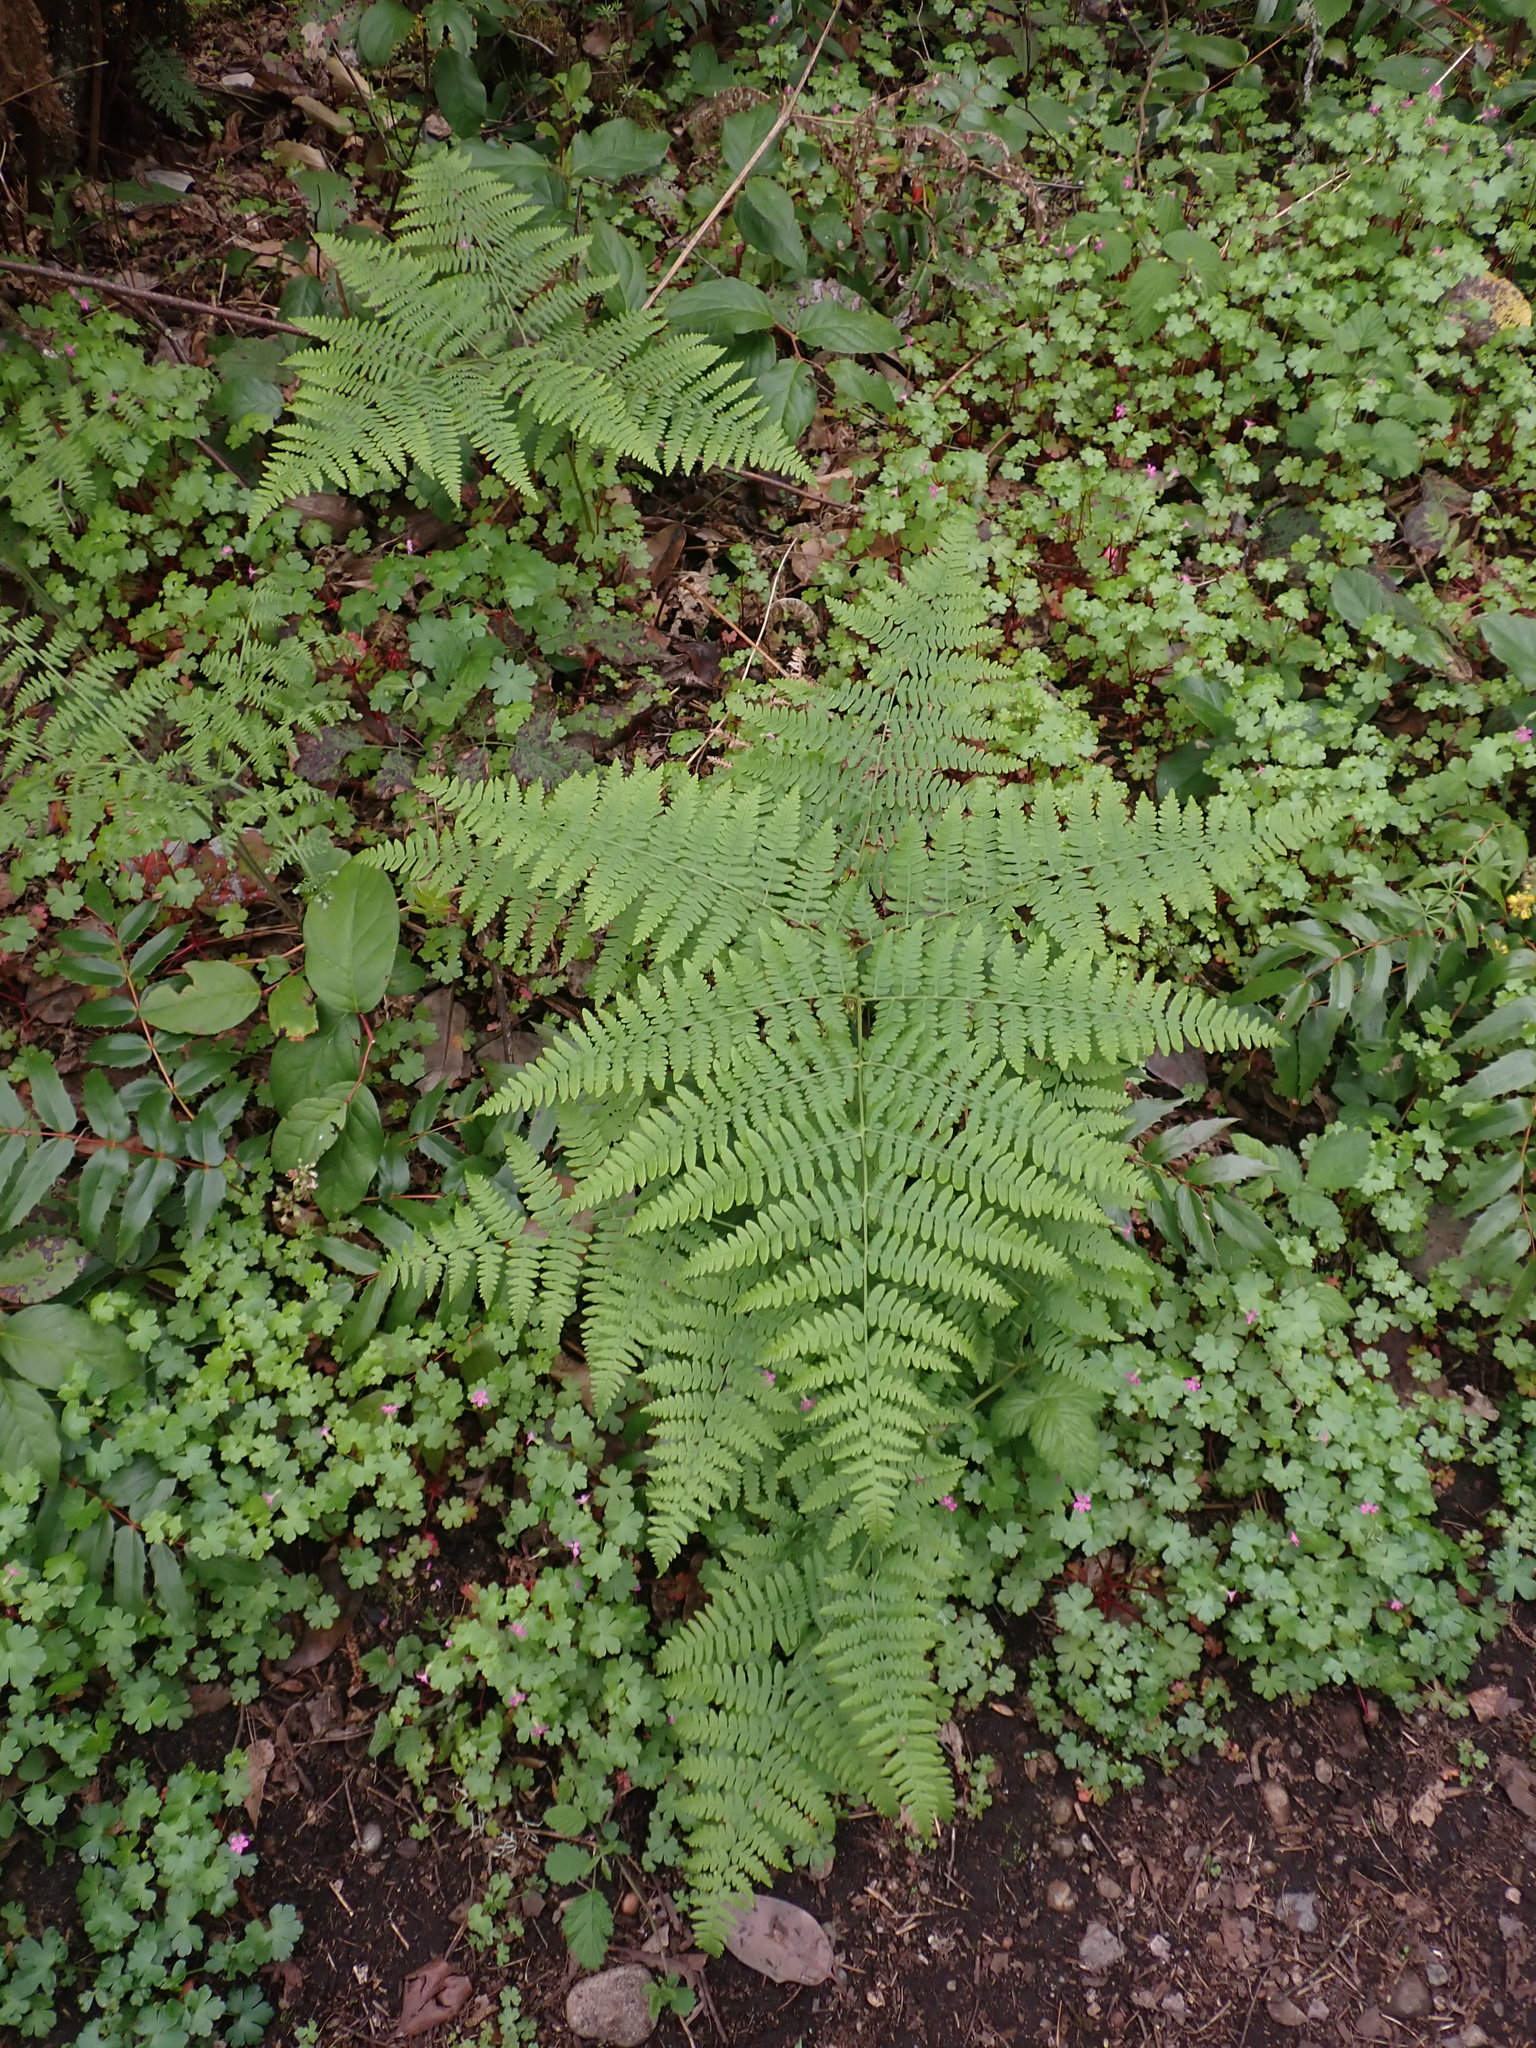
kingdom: Plantae
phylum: Tracheophyta
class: Polypodiopsida
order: Polypodiales
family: Dennstaedtiaceae
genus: Pteridium
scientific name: Pteridium aquilinum
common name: Bracken
